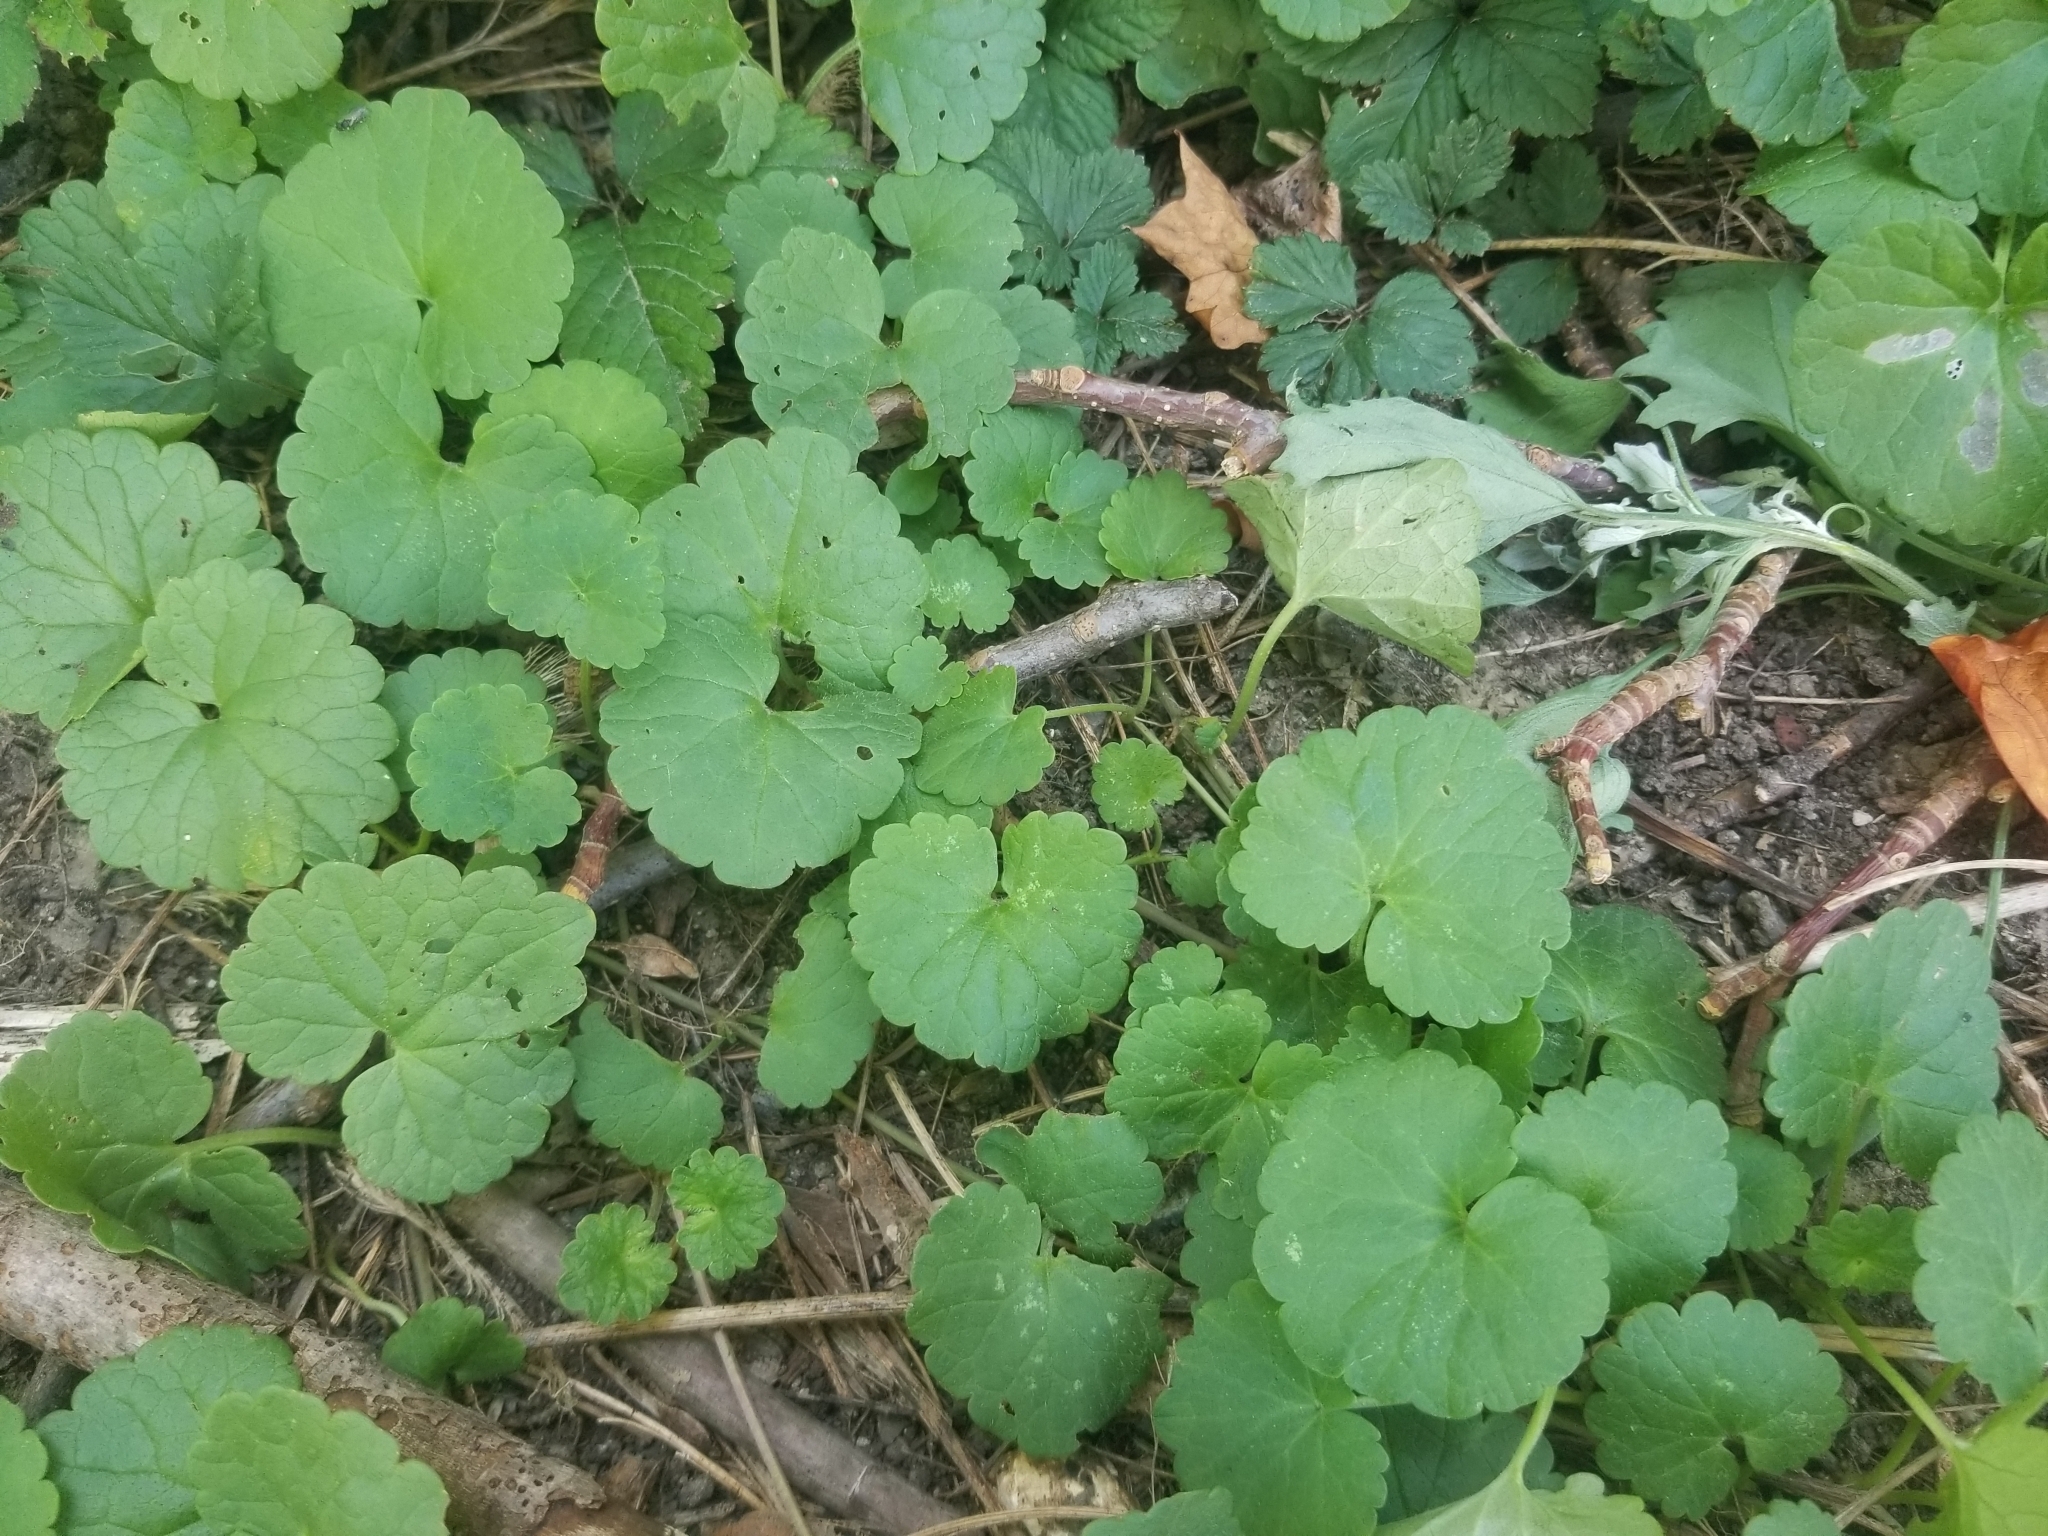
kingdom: Plantae
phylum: Tracheophyta
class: Magnoliopsida
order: Lamiales
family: Lamiaceae
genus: Glechoma
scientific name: Glechoma hederacea
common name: Ground ivy
